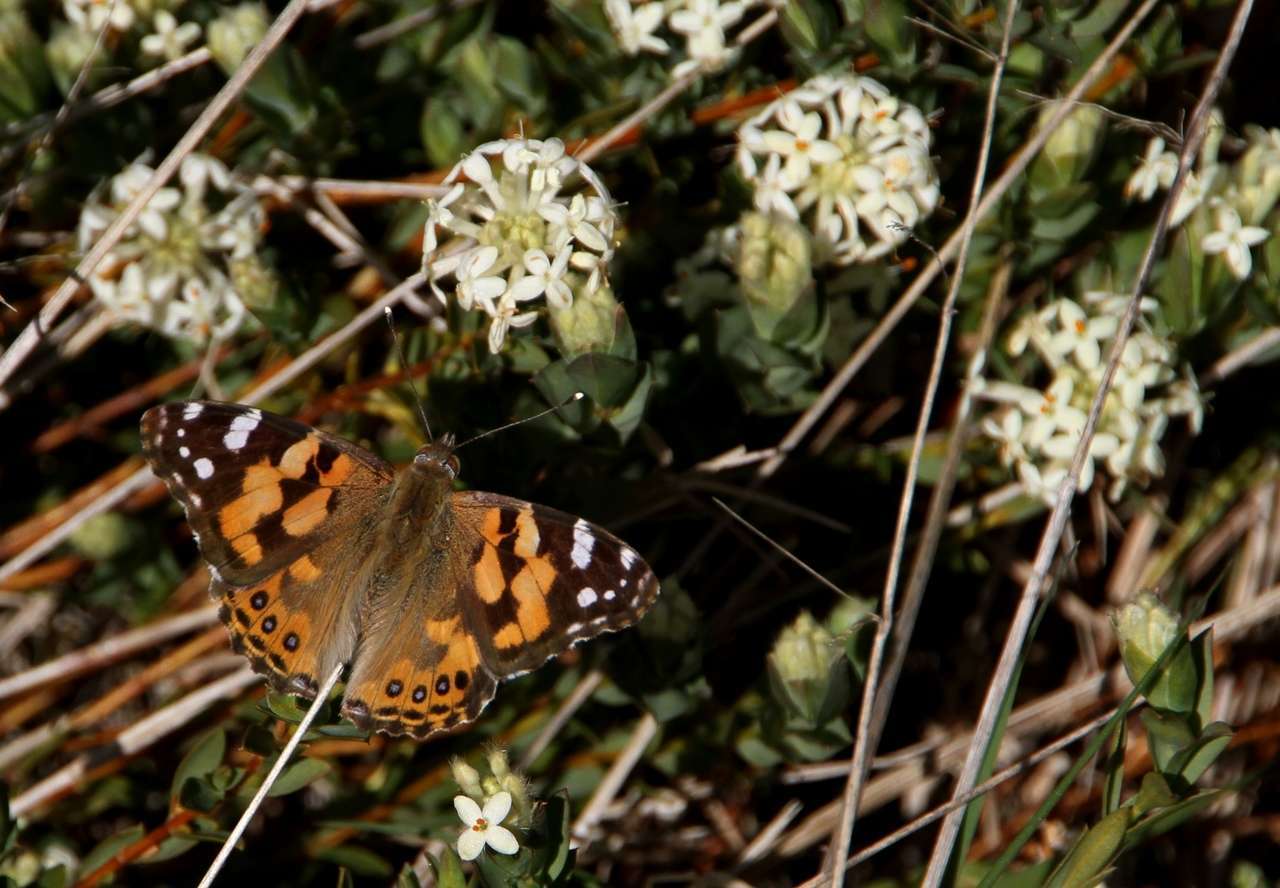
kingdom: Animalia
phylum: Arthropoda
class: Insecta
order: Lepidoptera
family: Nymphalidae
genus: Vanessa
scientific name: Vanessa kershawi
